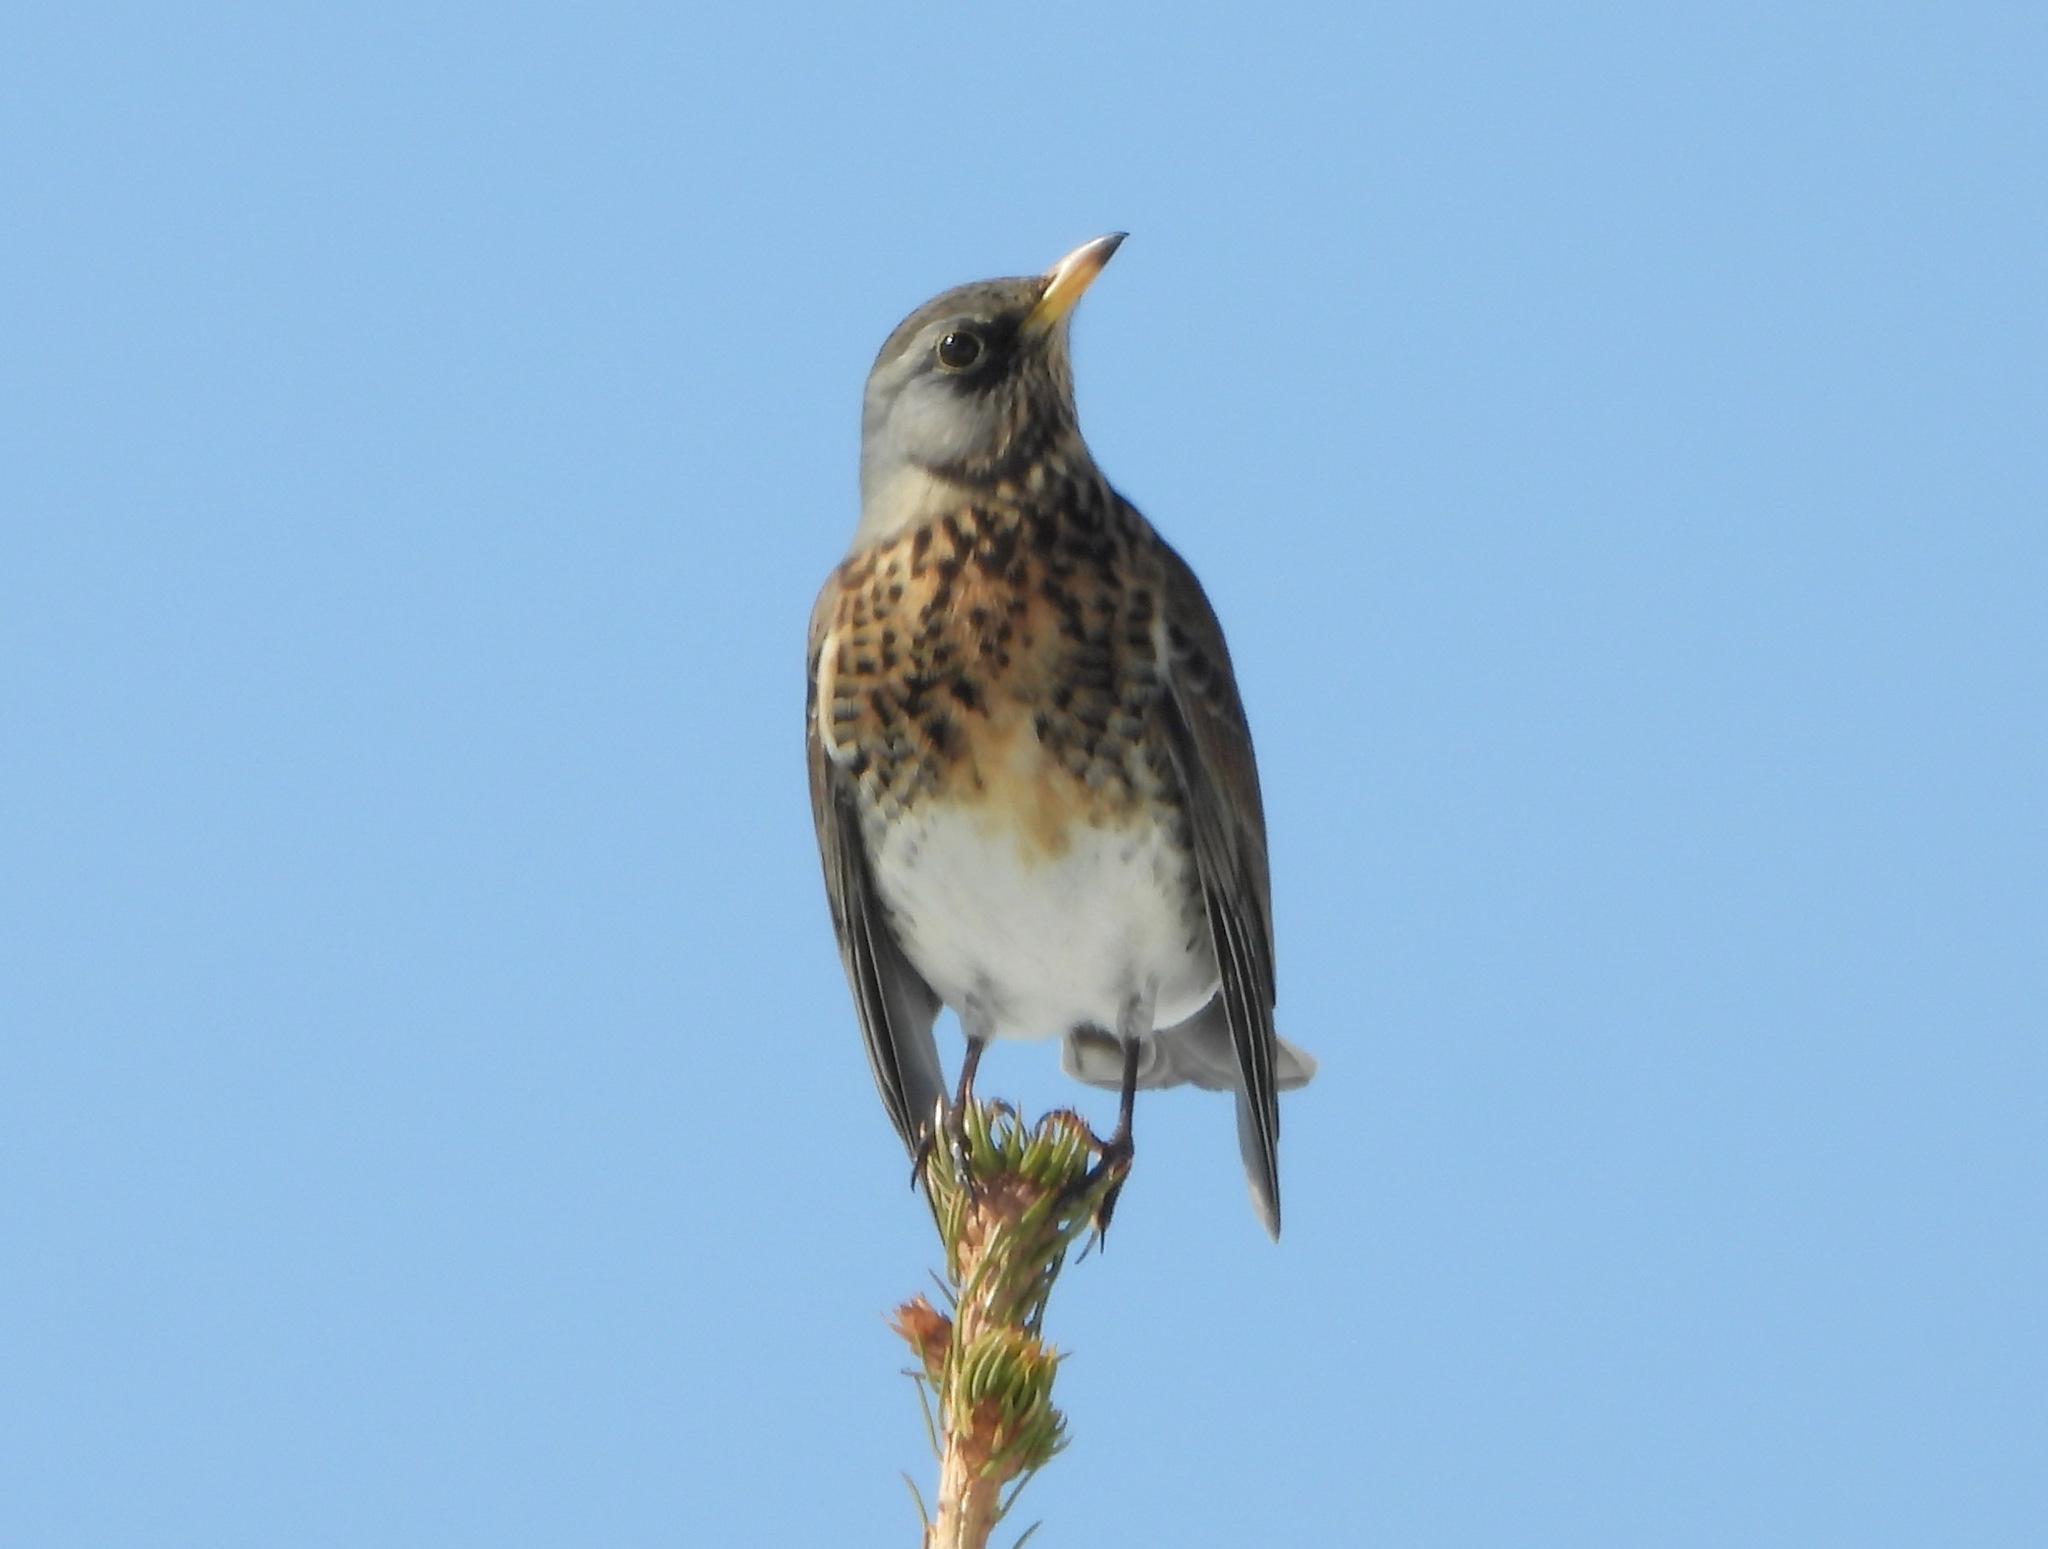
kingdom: Animalia
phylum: Chordata
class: Aves
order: Passeriformes
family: Turdidae
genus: Turdus
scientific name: Turdus pilaris
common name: Fieldfare
